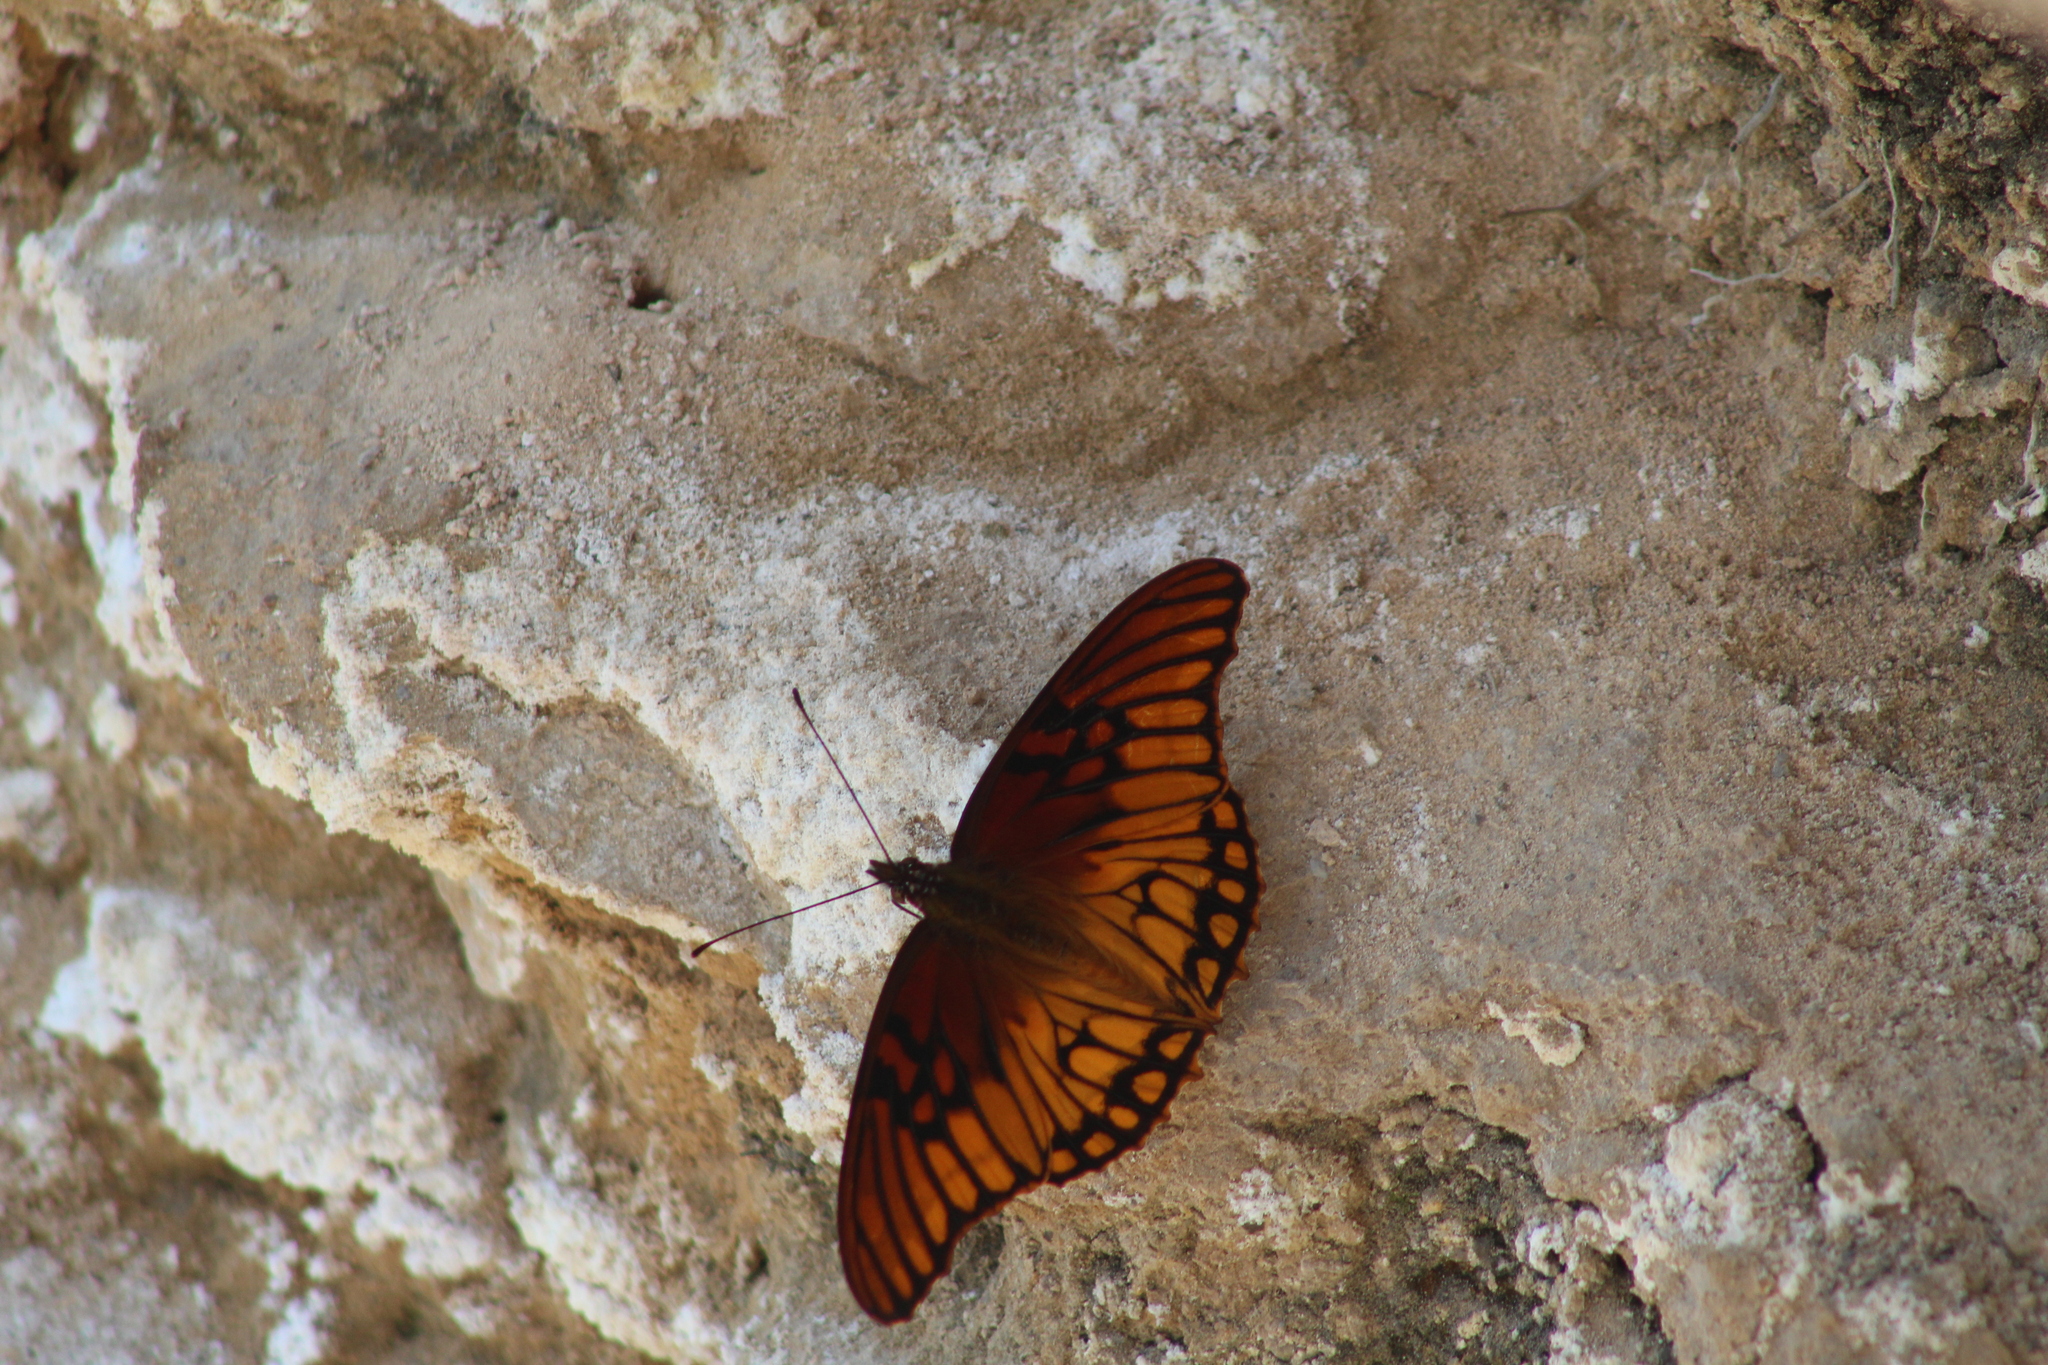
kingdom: Animalia
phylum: Arthropoda
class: Insecta
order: Lepidoptera
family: Nymphalidae
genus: Dione
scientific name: Dione moneta
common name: Mexican silverspot
